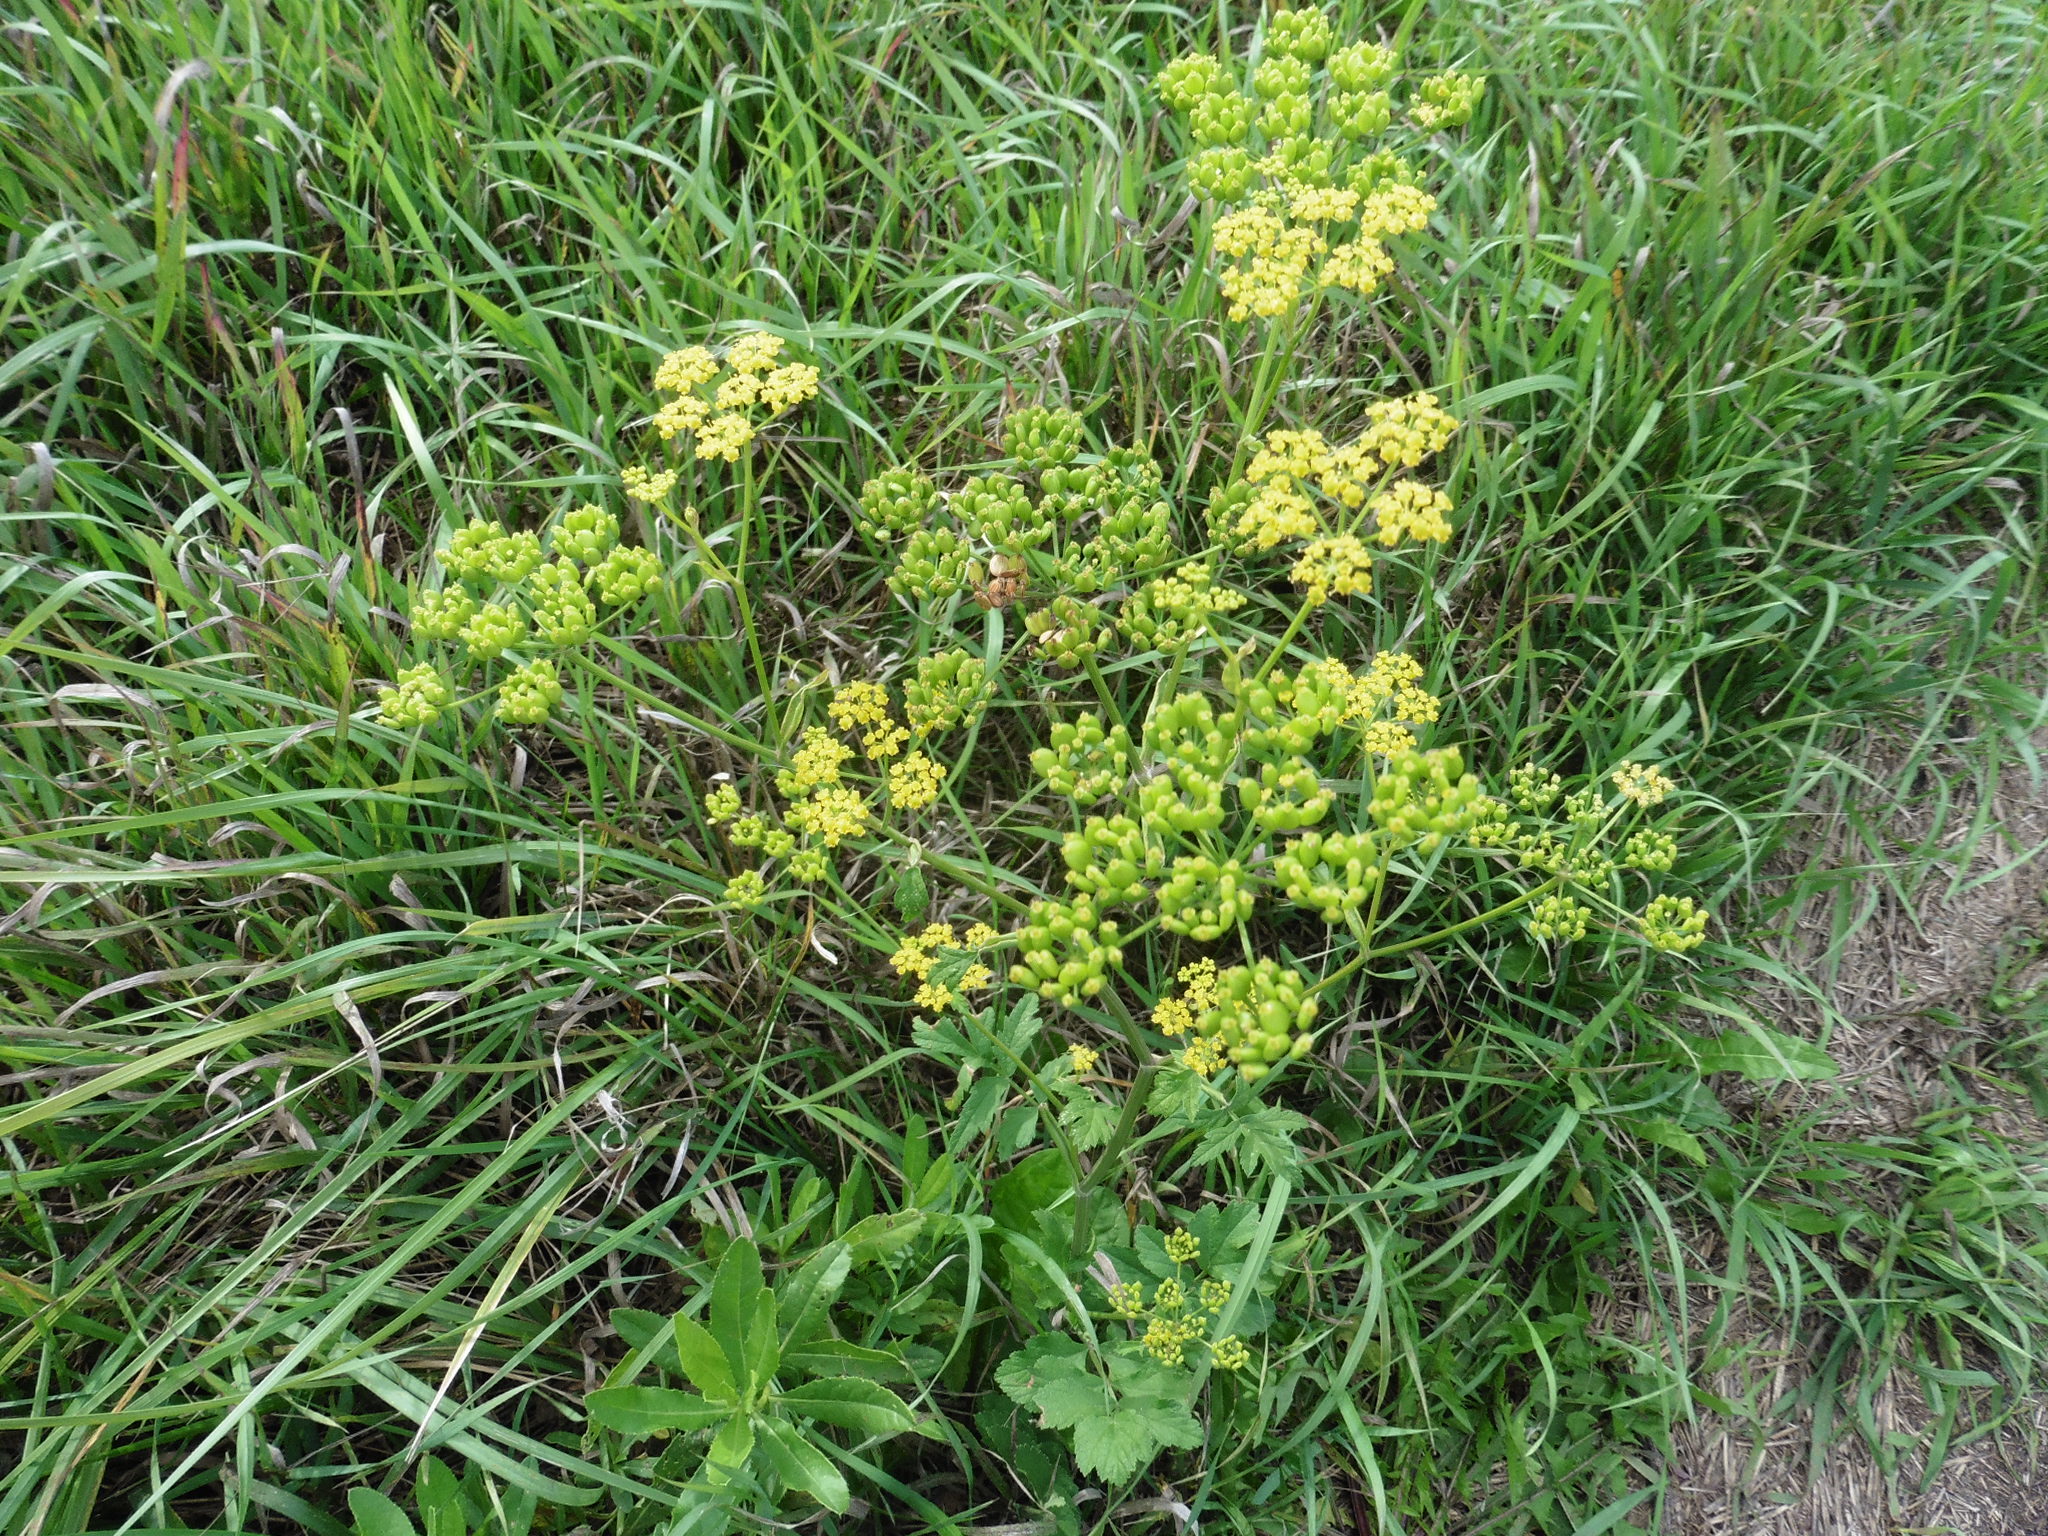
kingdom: Plantae
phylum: Tracheophyta
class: Magnoliopsida
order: Apiales
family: Apiaceae
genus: Pastinaca
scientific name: Pastinaca sativa
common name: Wild parsnip
